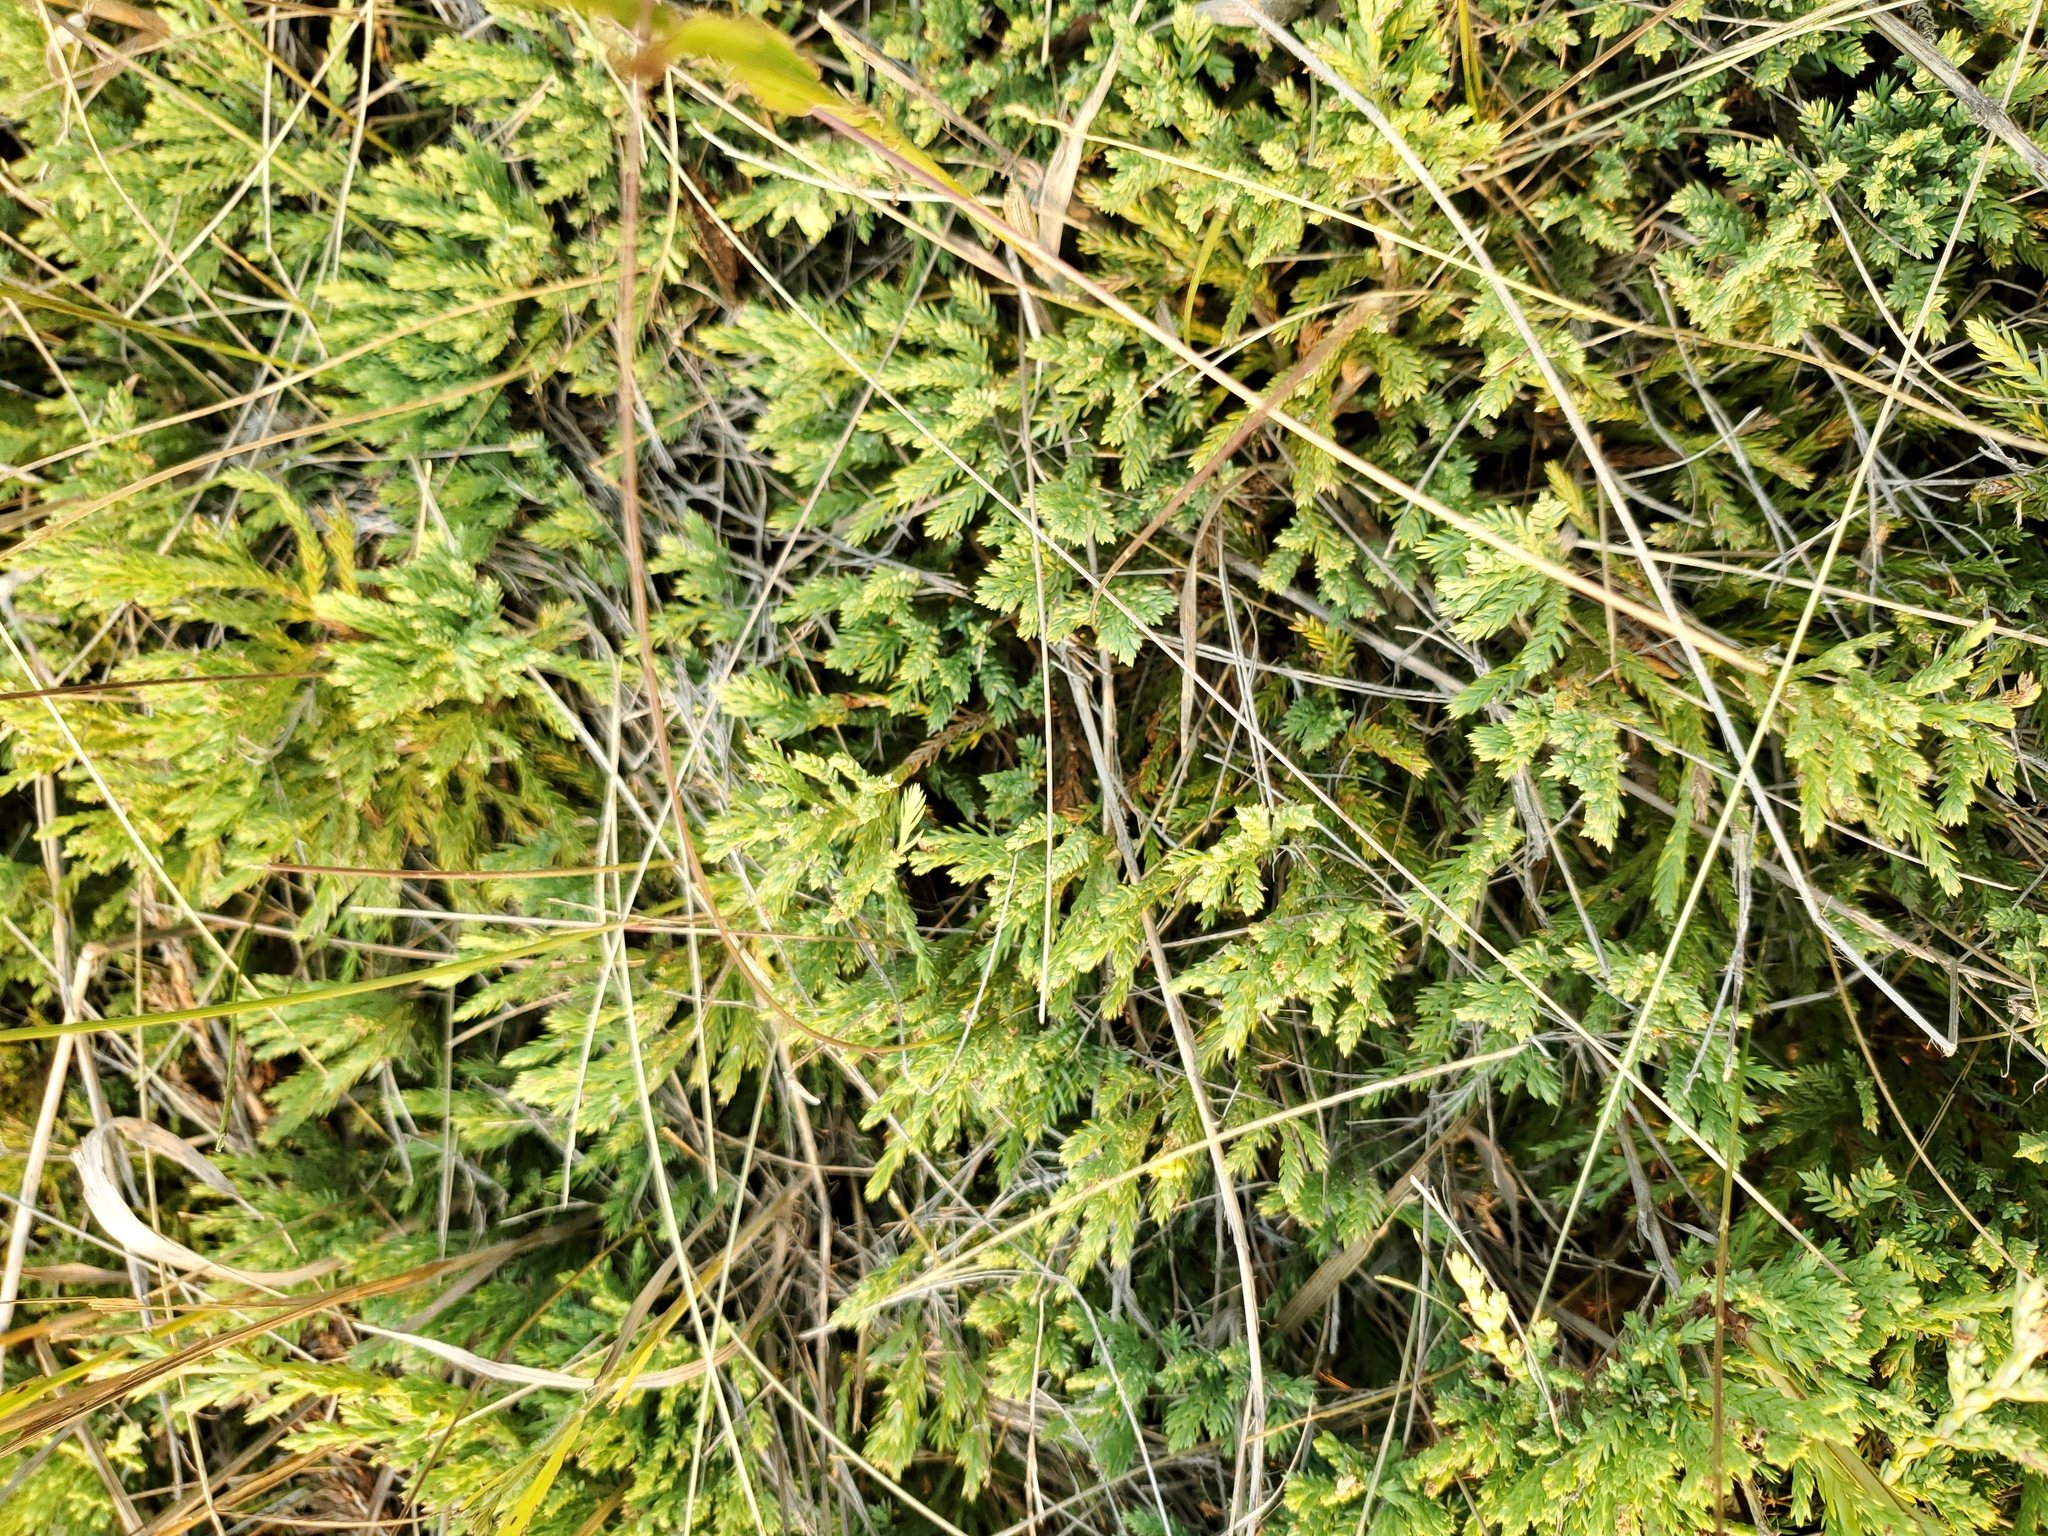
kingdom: Plantae
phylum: Tracheophyta
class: Pinopsida
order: Pinales
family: Cupressaceae
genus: Juniperus
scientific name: Juniperus horizontalis
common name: Creeping juniper
